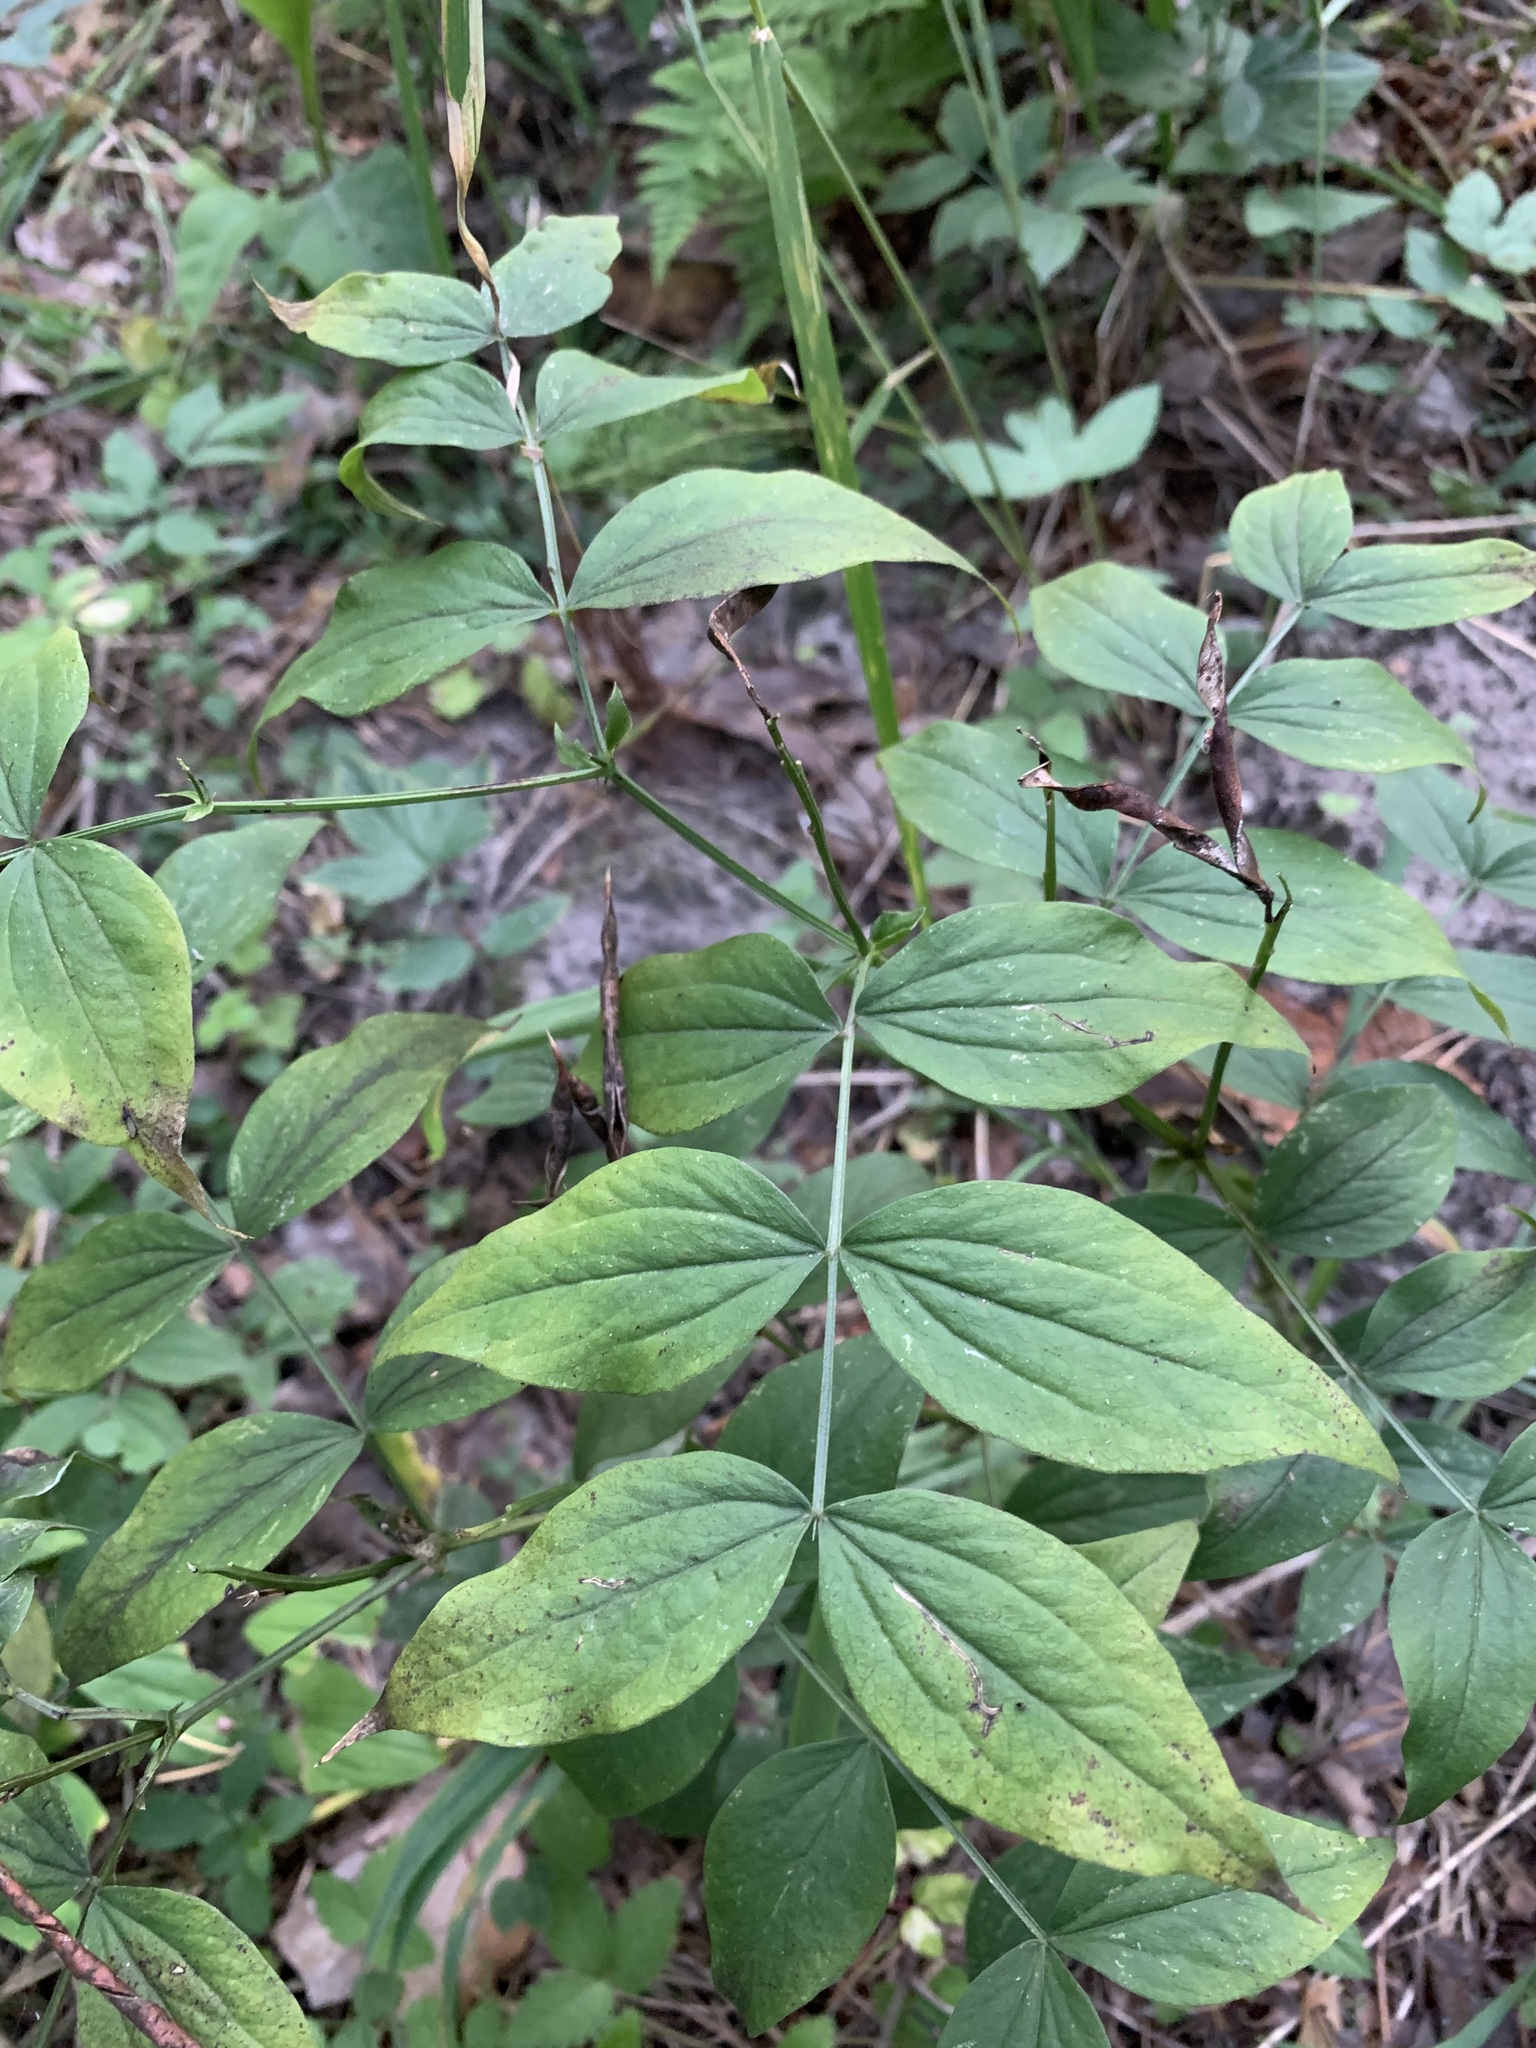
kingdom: Plantae
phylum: Tracheophyta
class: Magnoliopsida
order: Fabales
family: Fabaceae
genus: Lathyrus
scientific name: Lathyrus vernus
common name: Spring pea
